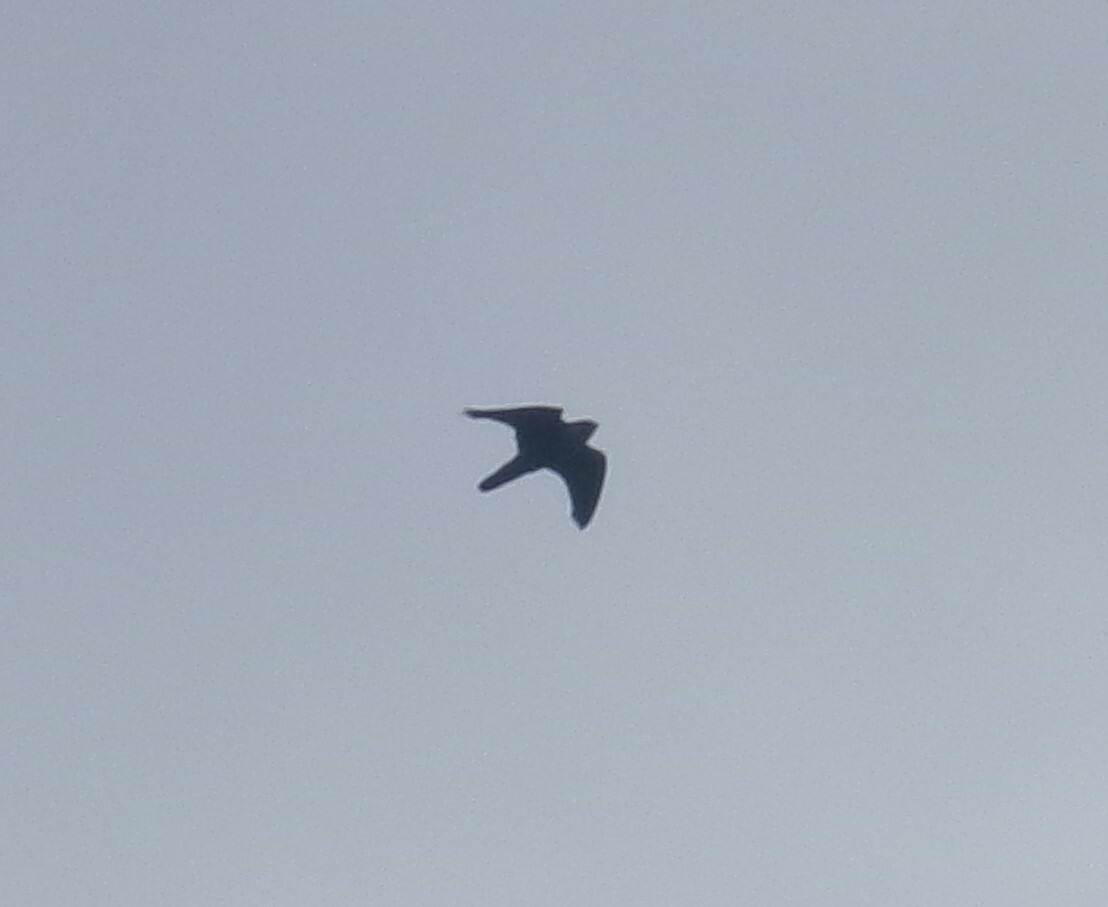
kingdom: Animalia
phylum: Chordata
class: Aves
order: Falconiformes
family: Falconidae
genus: Falco
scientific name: Falco peregrinus
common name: Peregrine falcon
